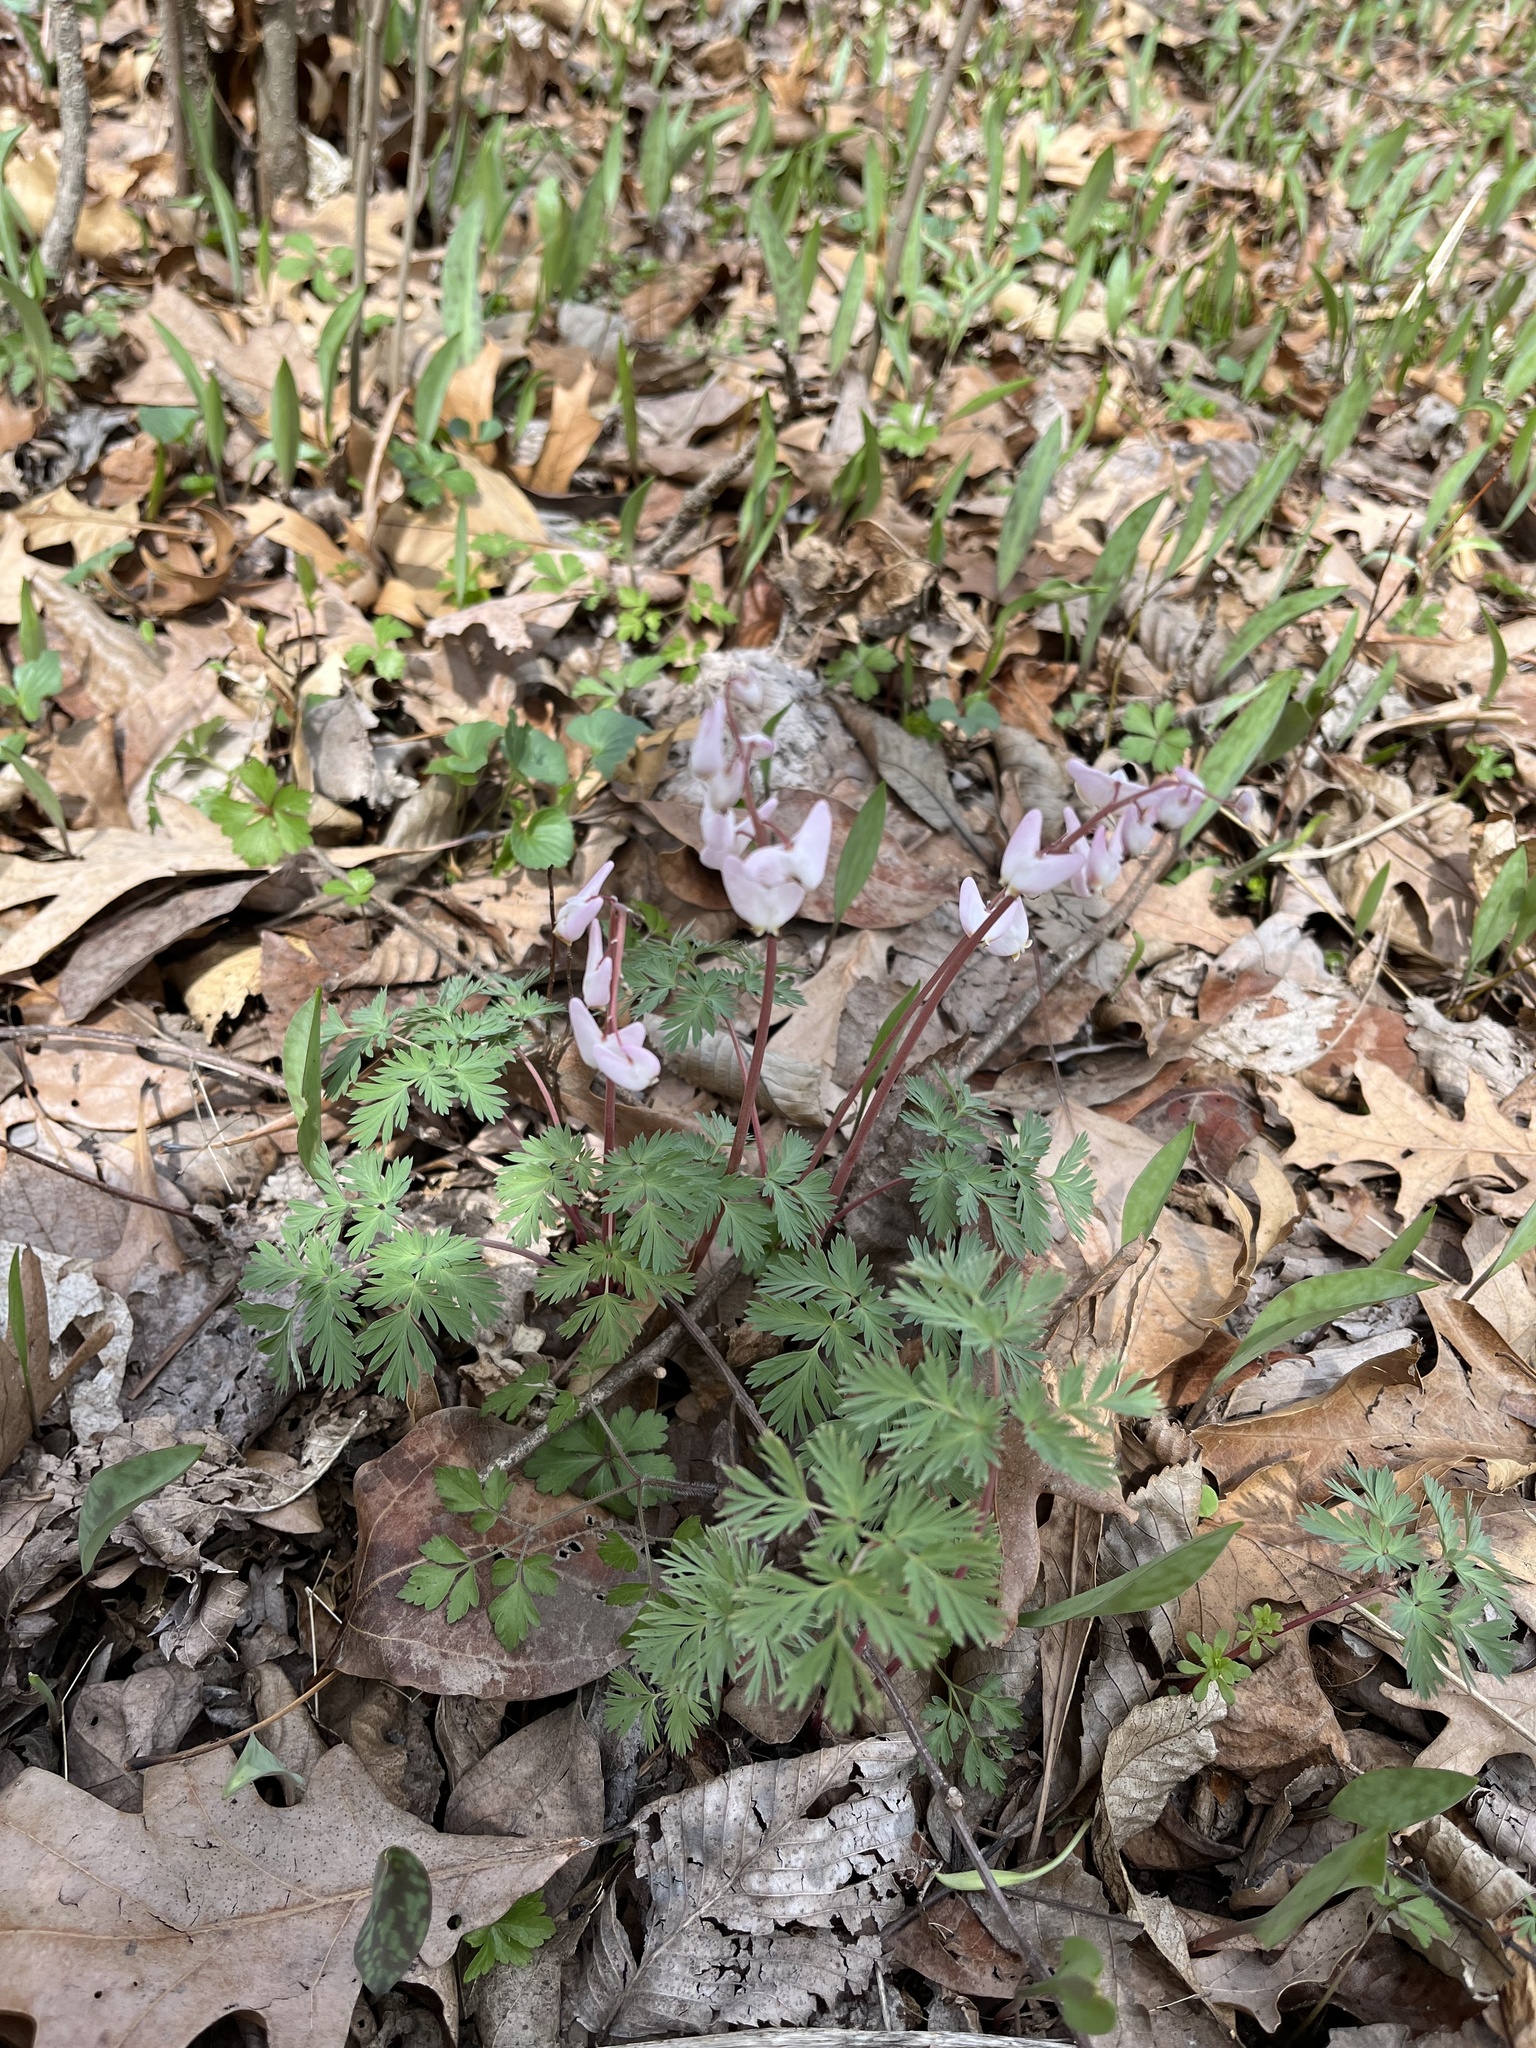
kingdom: Plantae
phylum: Tracheophyta
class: Magnoliopsida
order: Ranunculales
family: Papaveraceae
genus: Dicentra
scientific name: Dicentra cucullaria
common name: Dutchman's breeches
